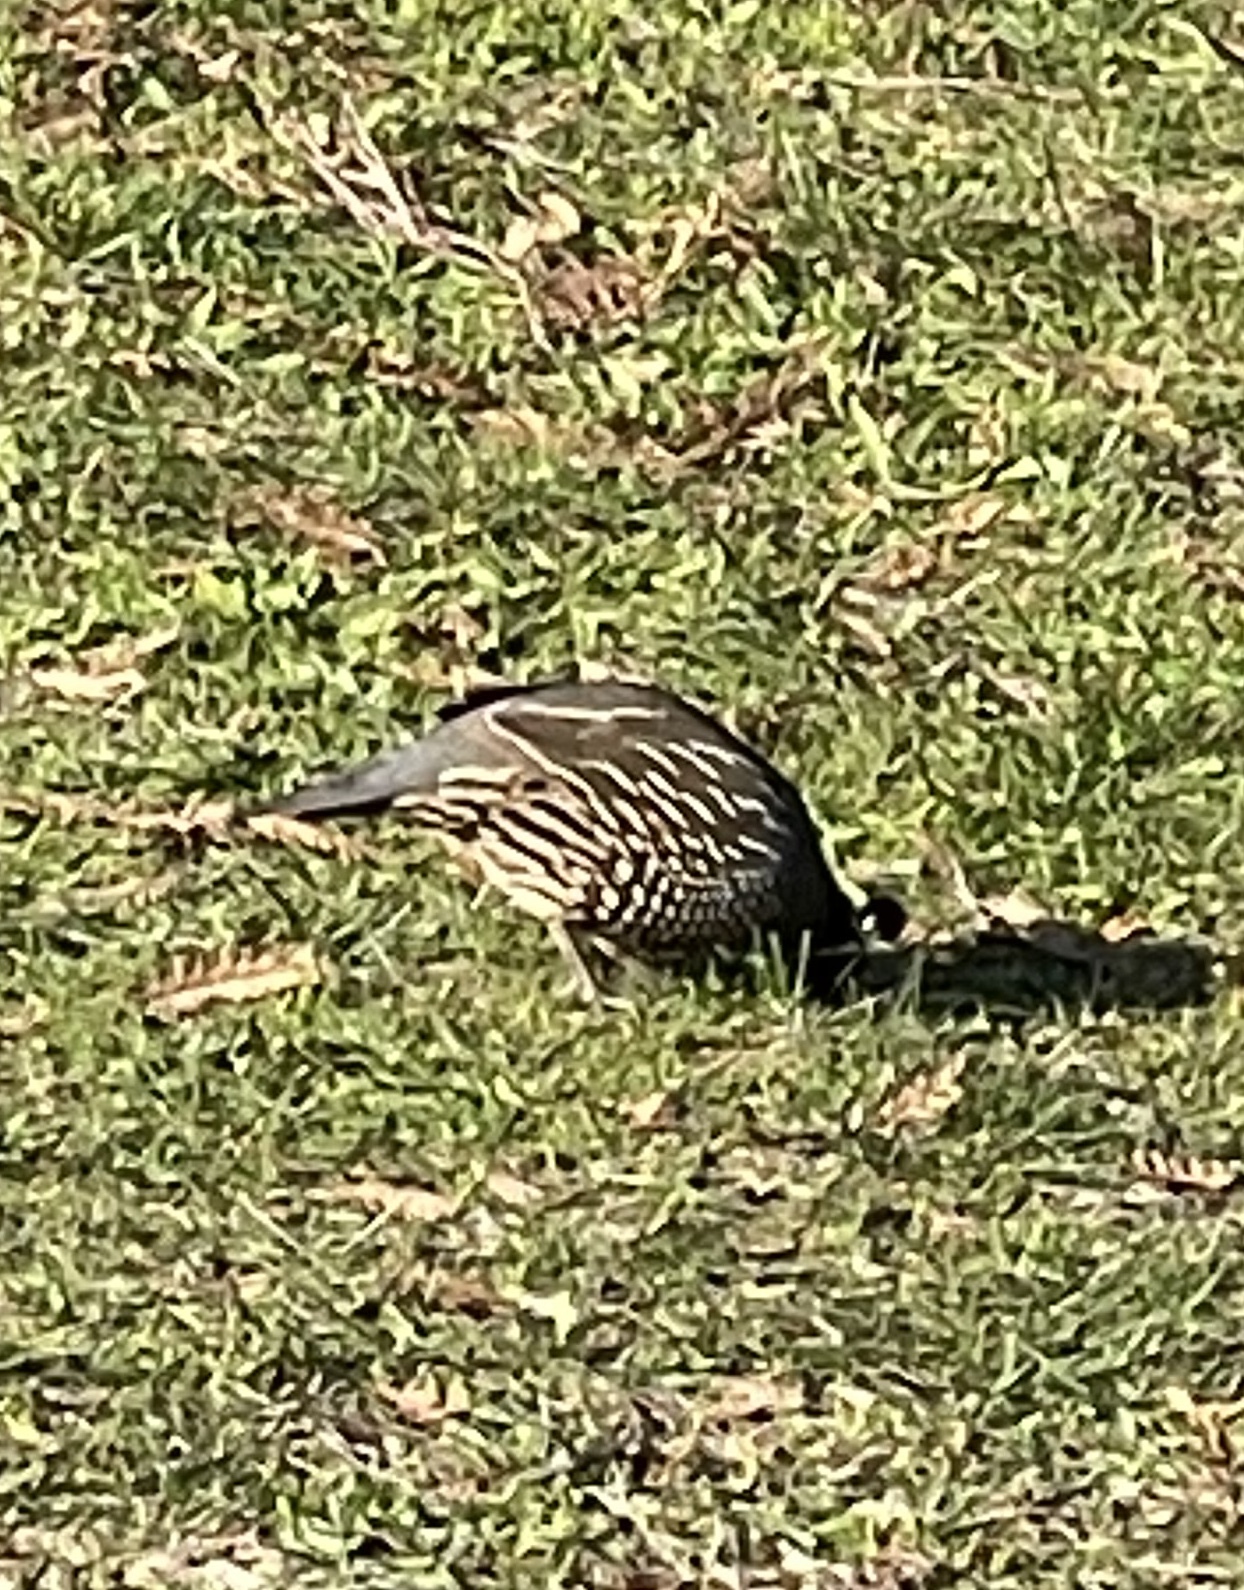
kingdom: Animalia
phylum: Chordata
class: Aves
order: Galliformes
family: Odontophoridae
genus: Callipepla
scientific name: Callipepla californica
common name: California quail
